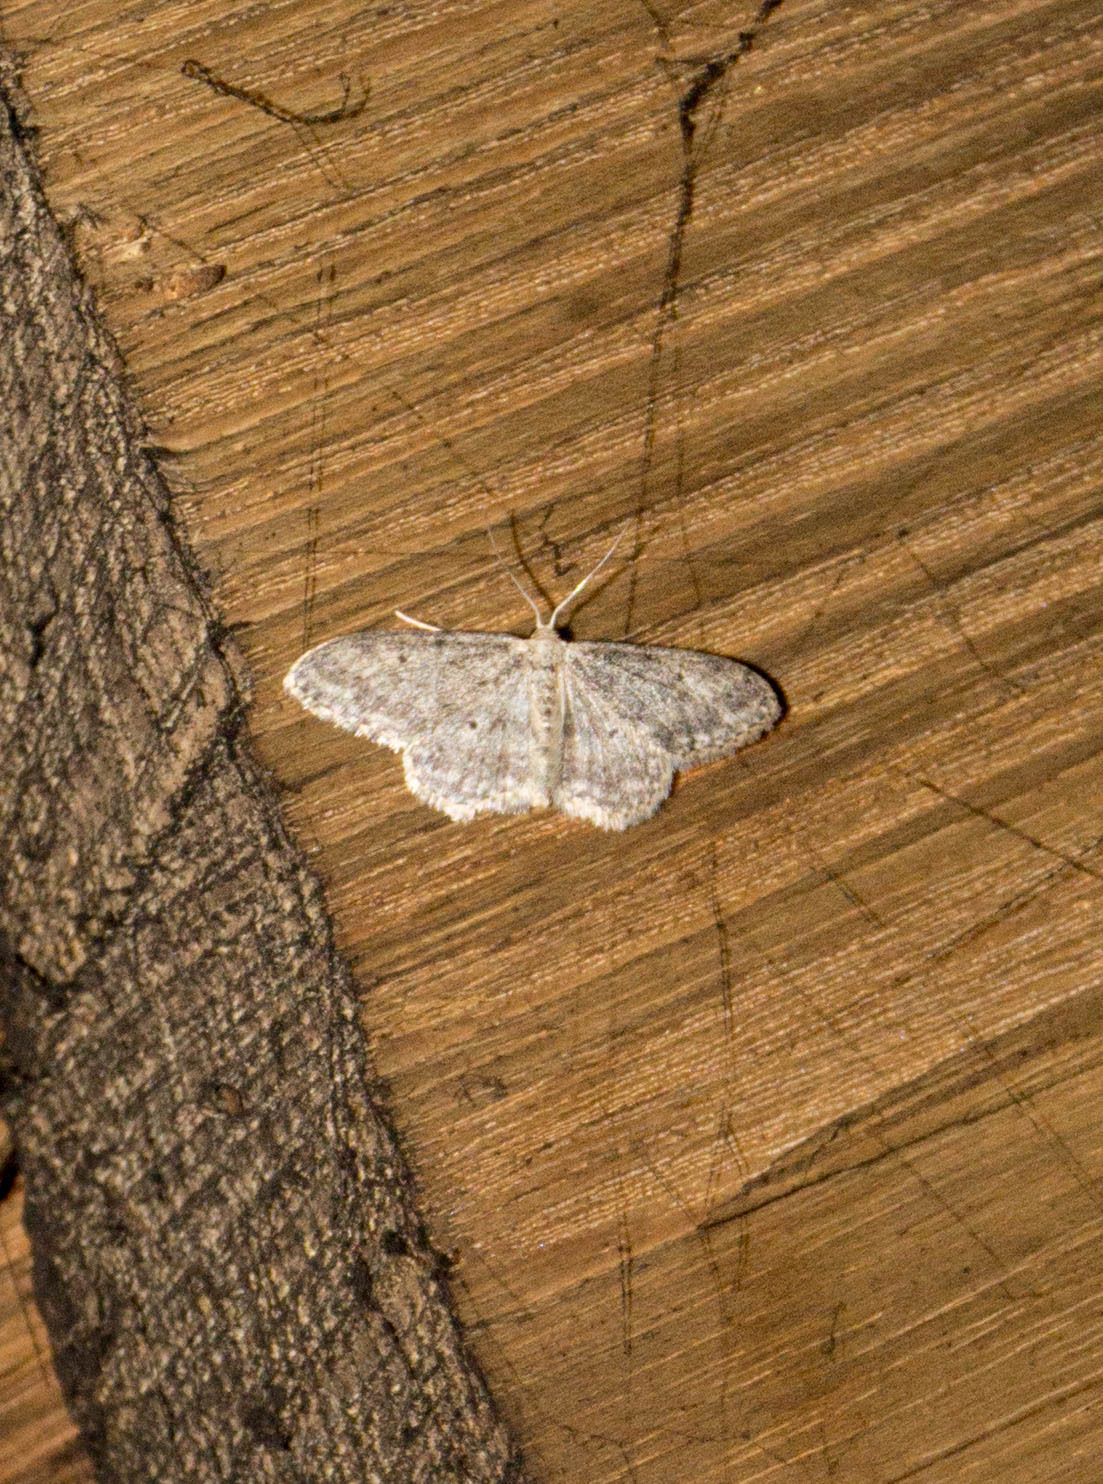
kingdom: Animalia
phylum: Arthropoda
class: Insecta
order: Lepidoptera
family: Geometridae
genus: Idaea
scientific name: Idaea seriata
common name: Small dusty wave
